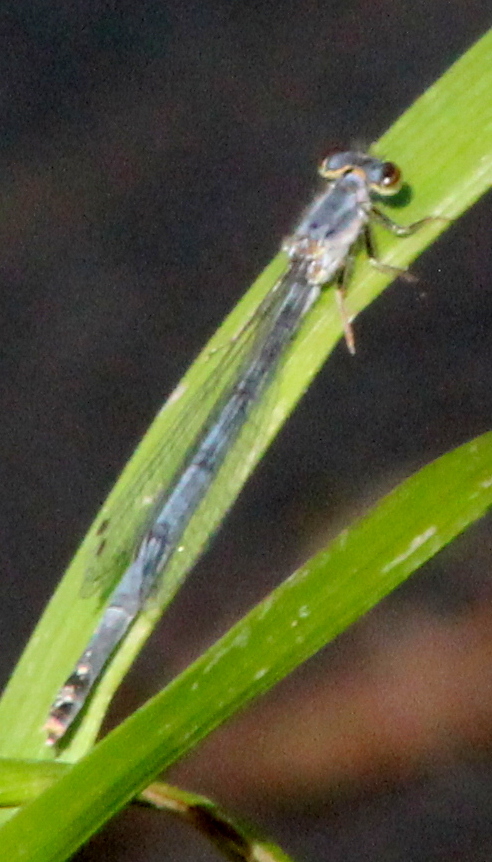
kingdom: Animalia
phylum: Arthropoda
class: Insecta
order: Odonata
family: Coenagrionidae
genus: Ischnura
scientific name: Ischnura posita
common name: Fragile forktail
